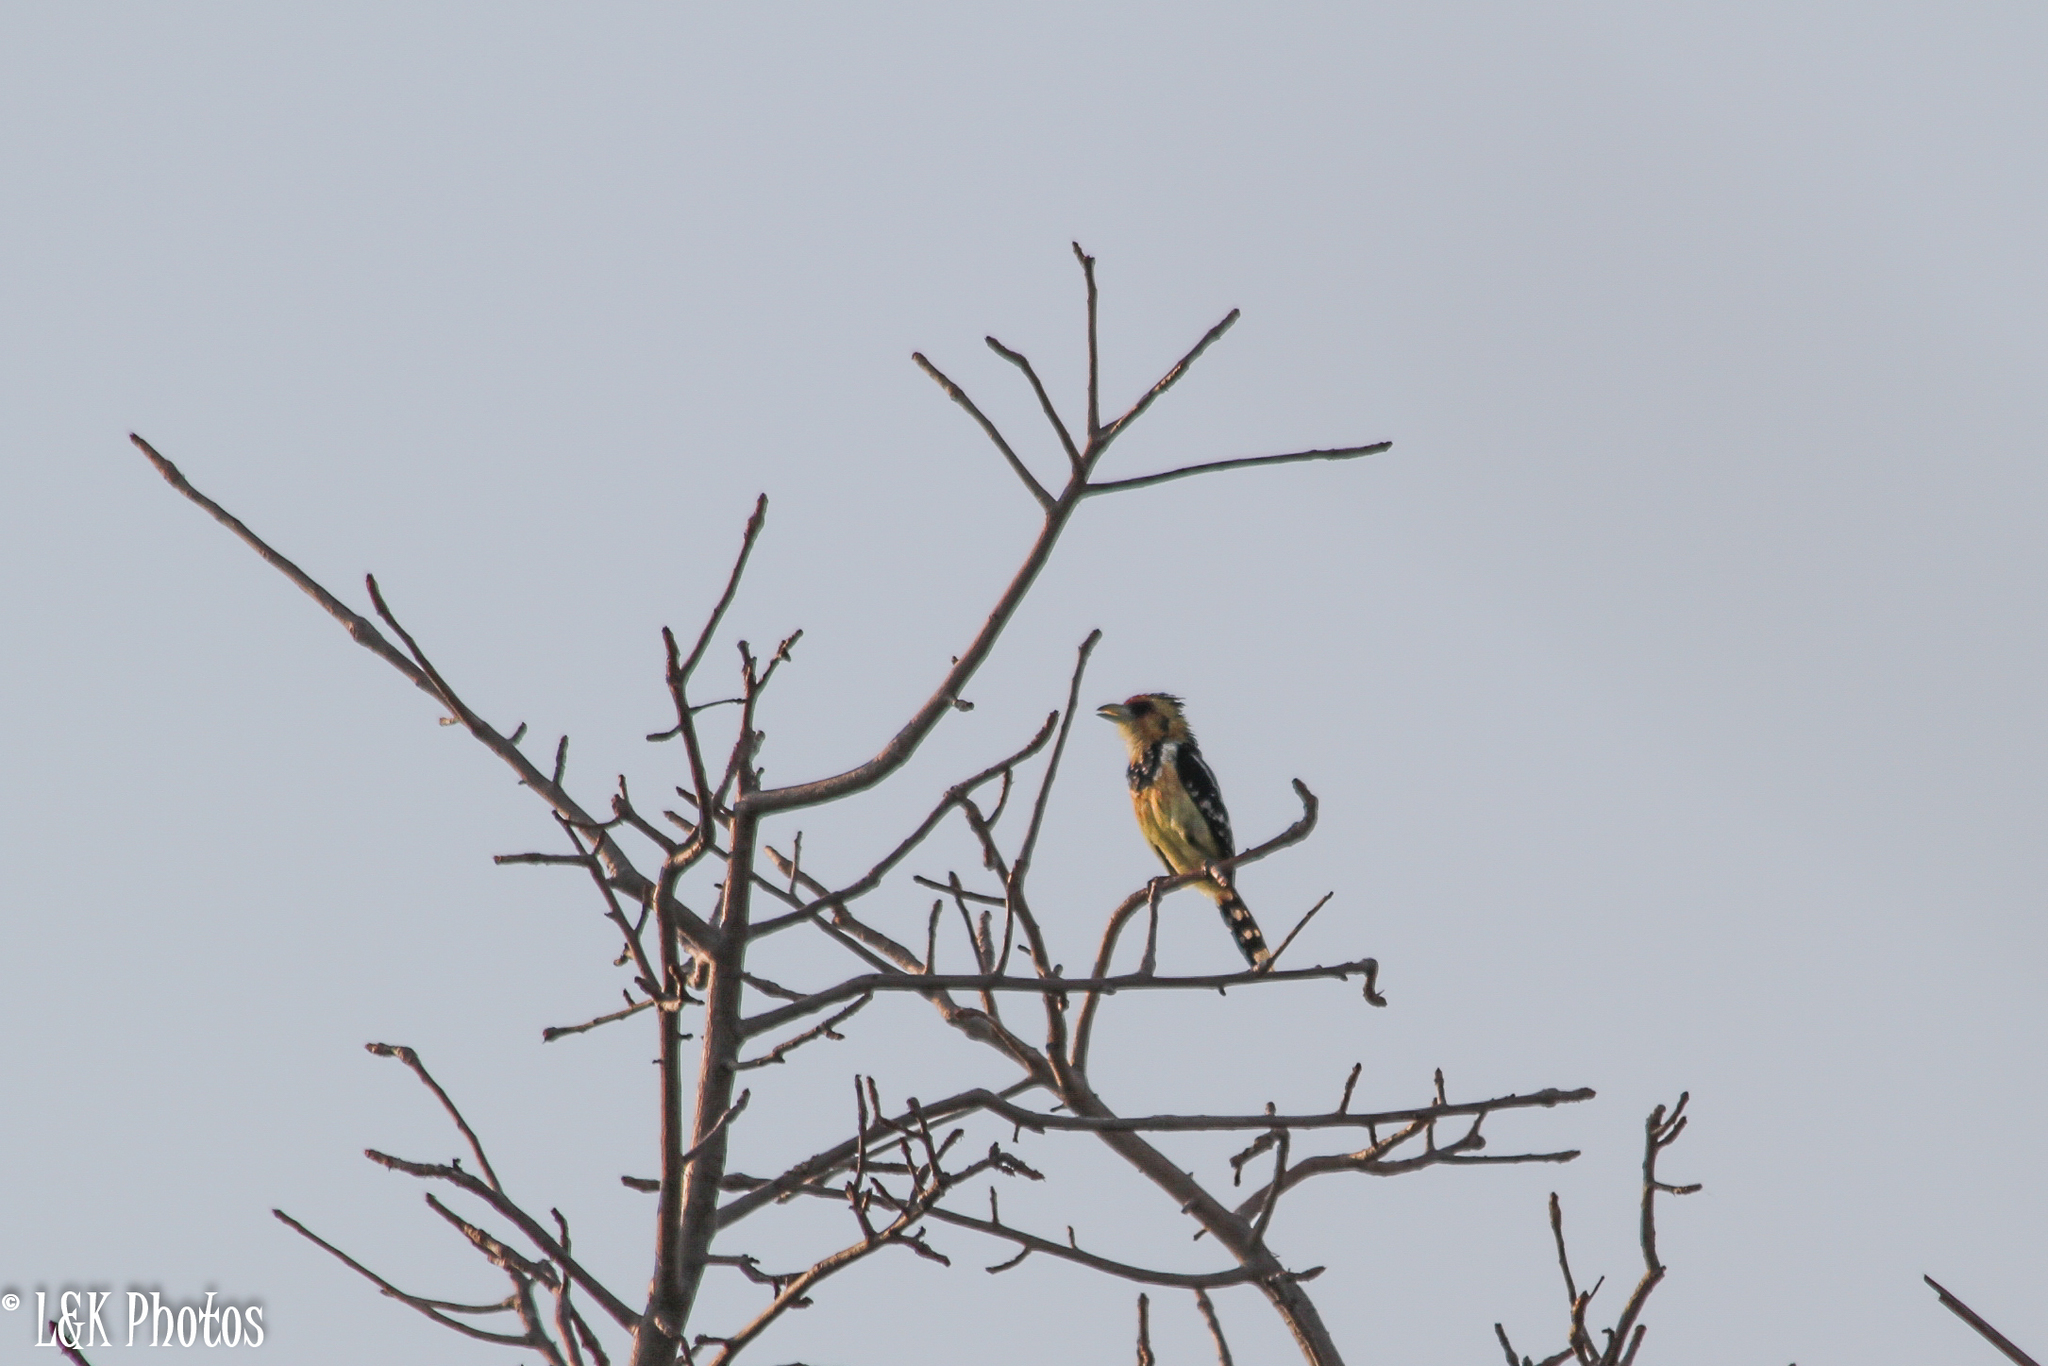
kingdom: Animalia
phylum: Chordata
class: Aves
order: Piciformes
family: Lybiidae
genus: Trachyphonus
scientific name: Trachyphonus vaillantii
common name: Crested barbet
